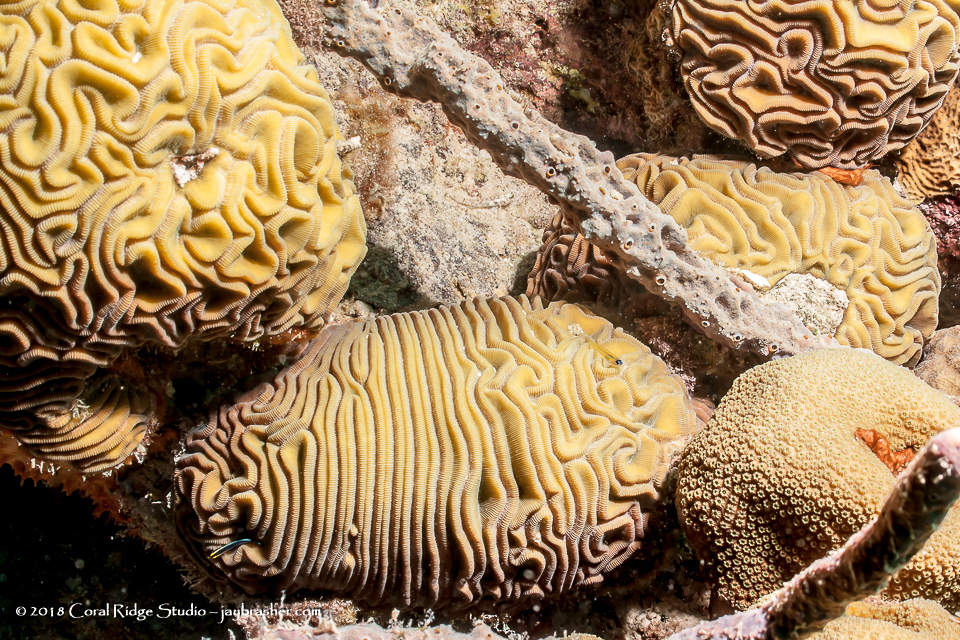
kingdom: Animalia
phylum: Cnidaria
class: Anthozoa
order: Scleractinia
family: Faviidae
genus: Diploria
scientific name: Diploria labyrinthiformis
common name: Grooved brain coral
